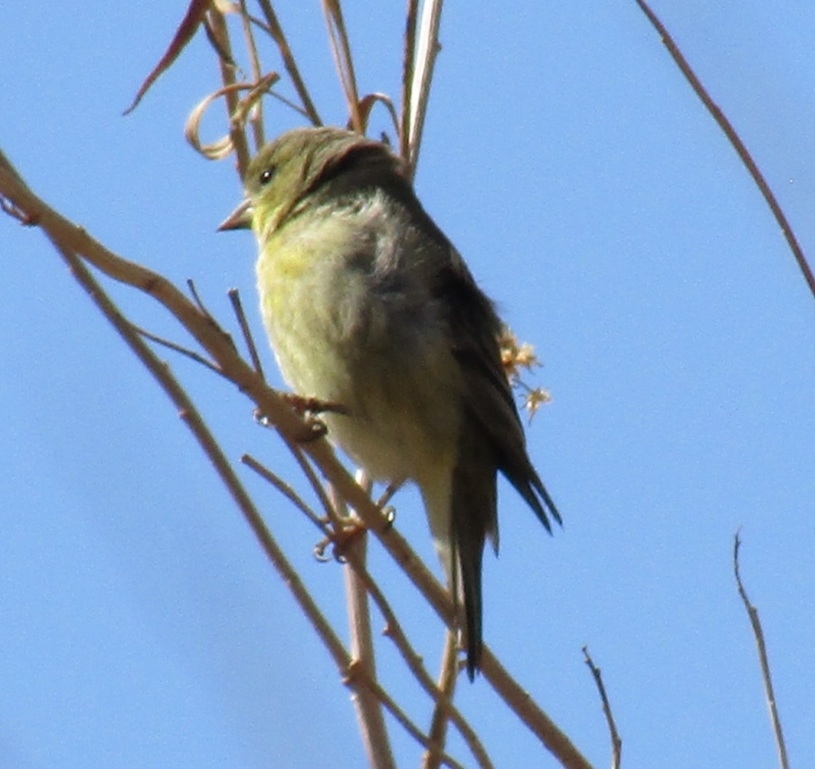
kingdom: Animalia
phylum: Chordata
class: Aves
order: Passeriformes
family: Fringillidae
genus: Spinus
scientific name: Spinus psaltria
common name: Lesser goldfinch
